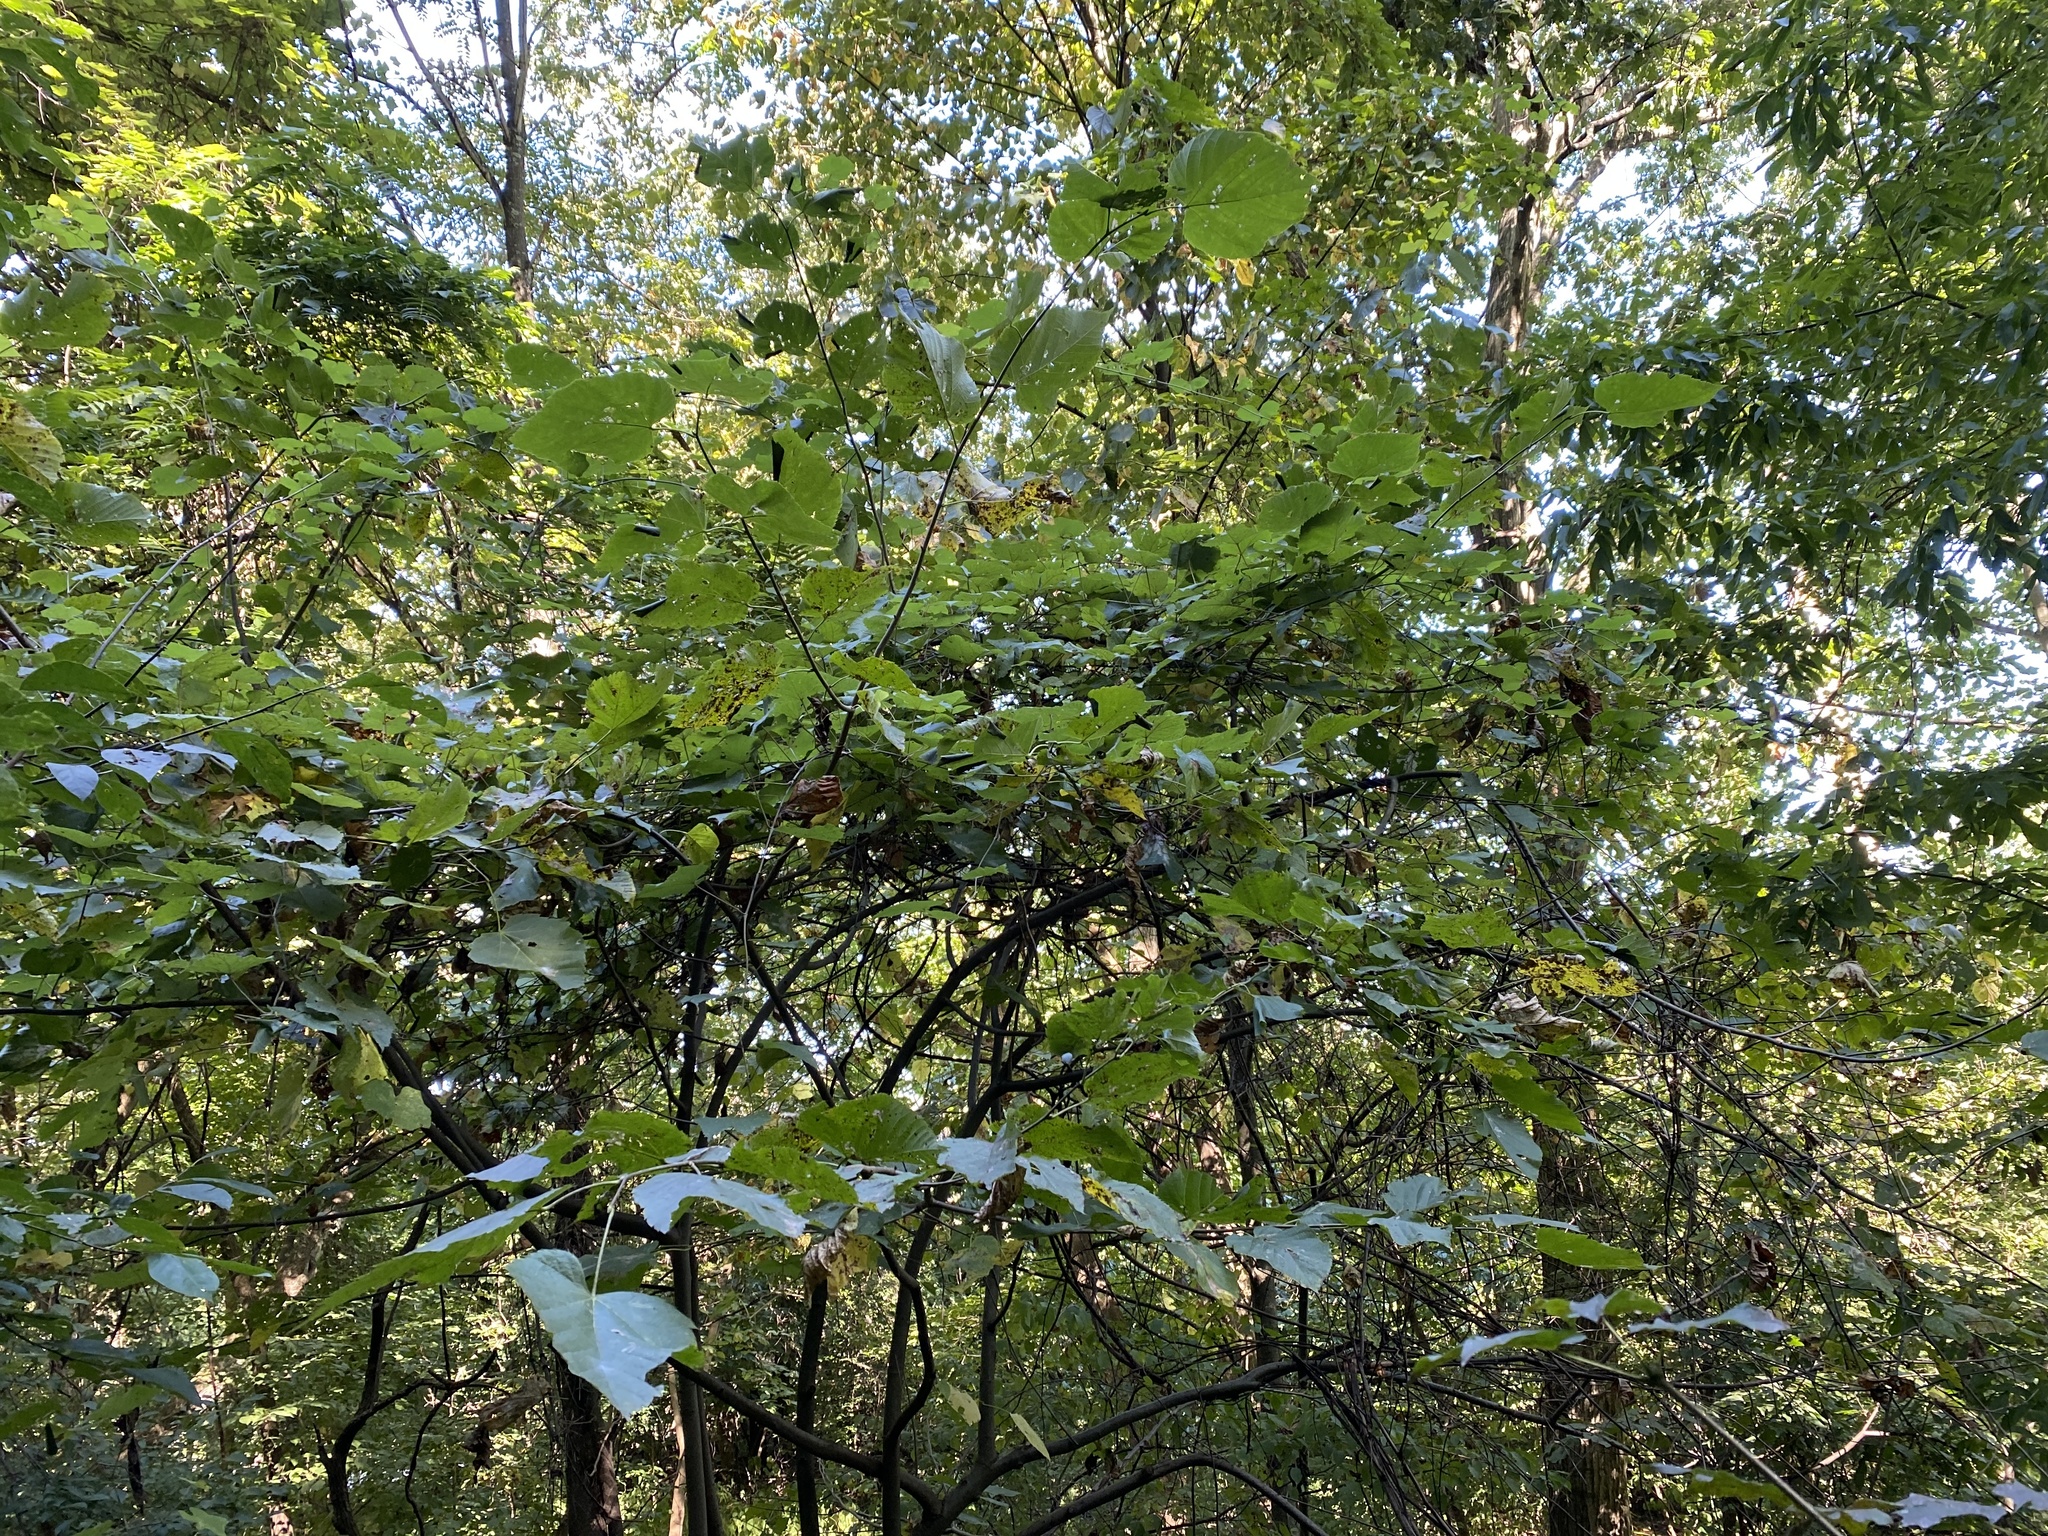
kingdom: Plantae
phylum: Tracheophyta
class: Magnoliopsida
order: Malvales
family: Malvaceae
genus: Tilia
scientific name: Tilia americana
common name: Basswood
